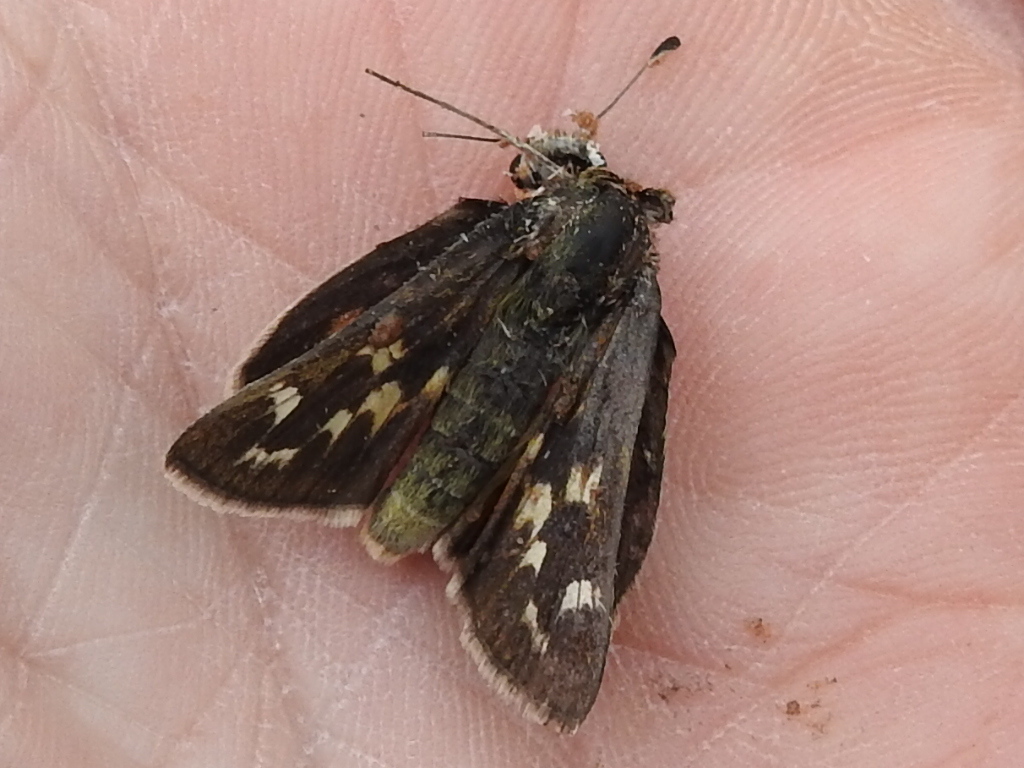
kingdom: Animalia
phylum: Arthropoda
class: Insecta
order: Lepidoptera
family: Hesperiidae
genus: Hesperia
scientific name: Hesperia uncas
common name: Uncas skipper
